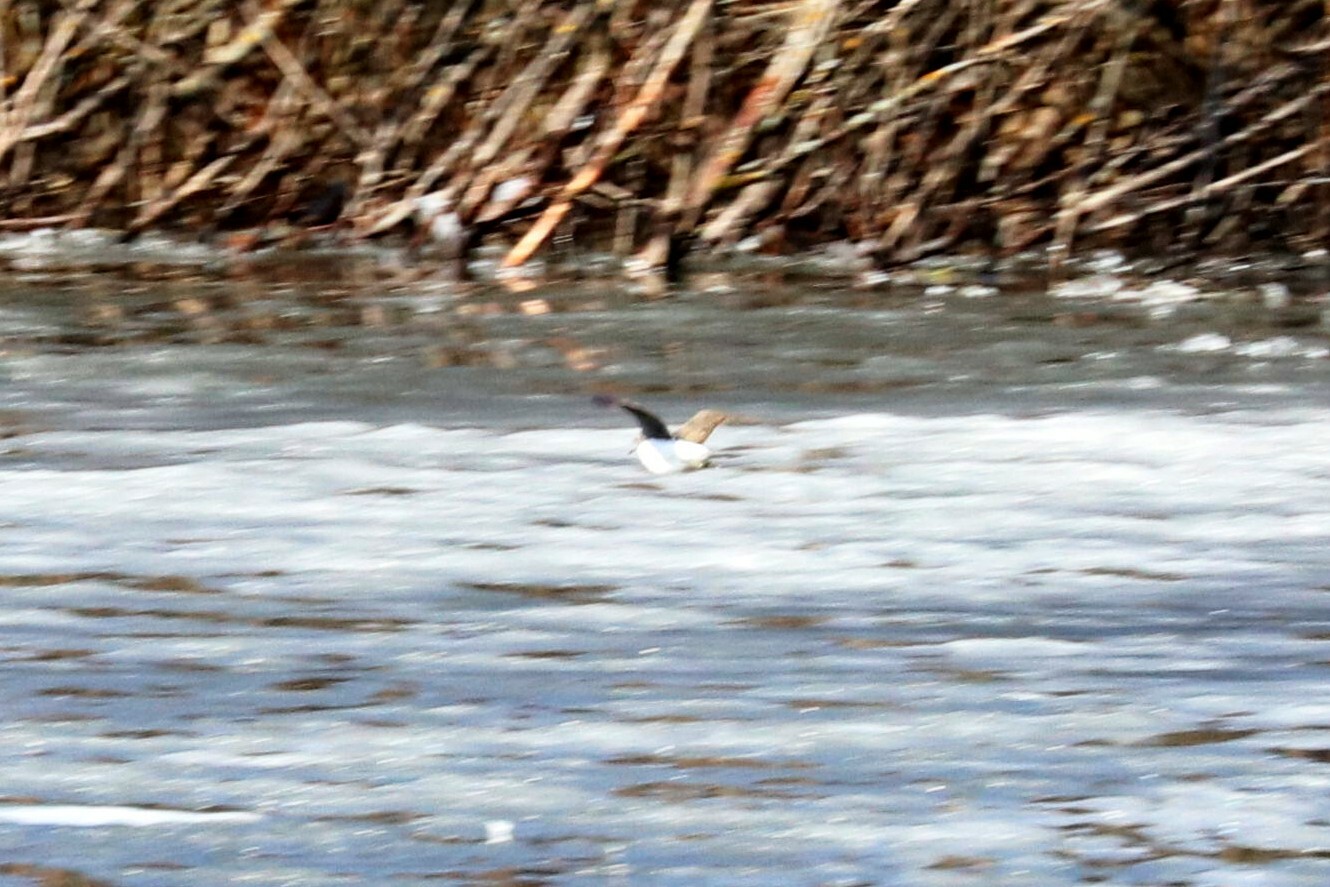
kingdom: Animalia
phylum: Chordata
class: Aves
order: Charadriiformes
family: Scolopacidae
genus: Tringa
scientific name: Tringa ochropus
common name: Green sandpiper
